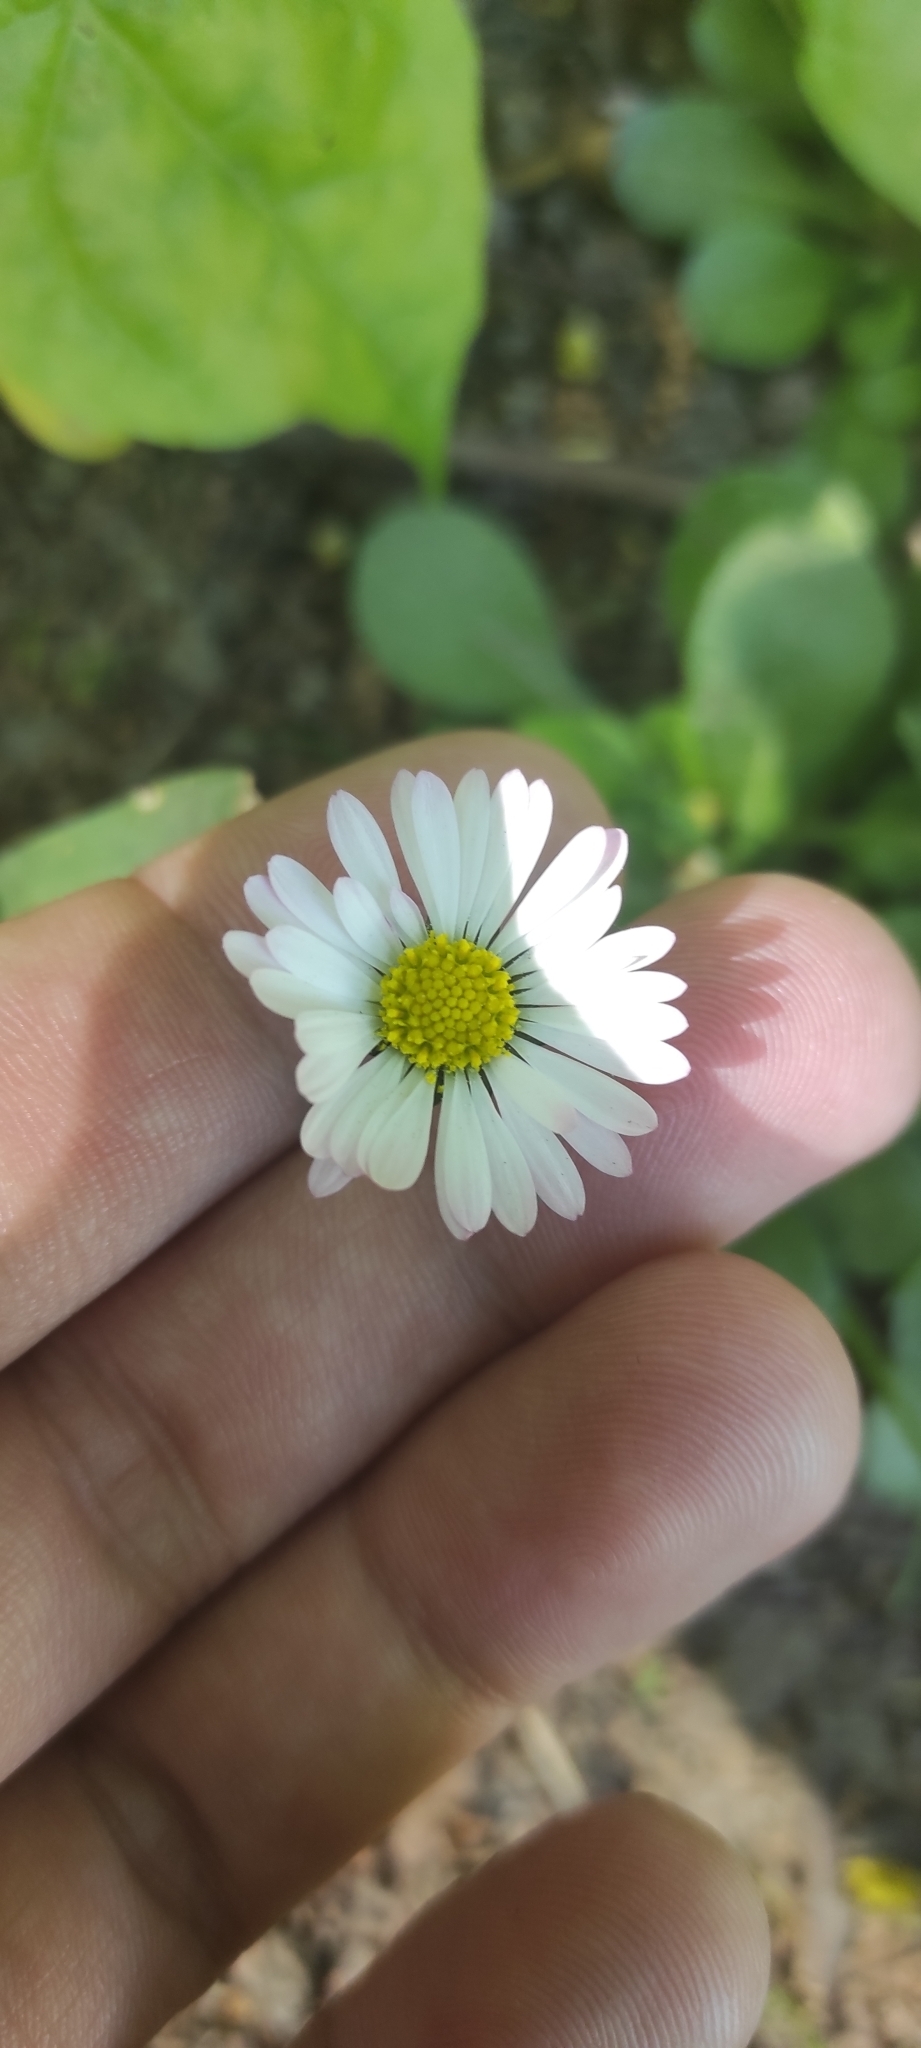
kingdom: Plantae
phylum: Tracheophyta
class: Magnoliopsida
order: Asterales
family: Asteraceae
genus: Bellis
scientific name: Bellis perennis
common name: Lawndaisy
